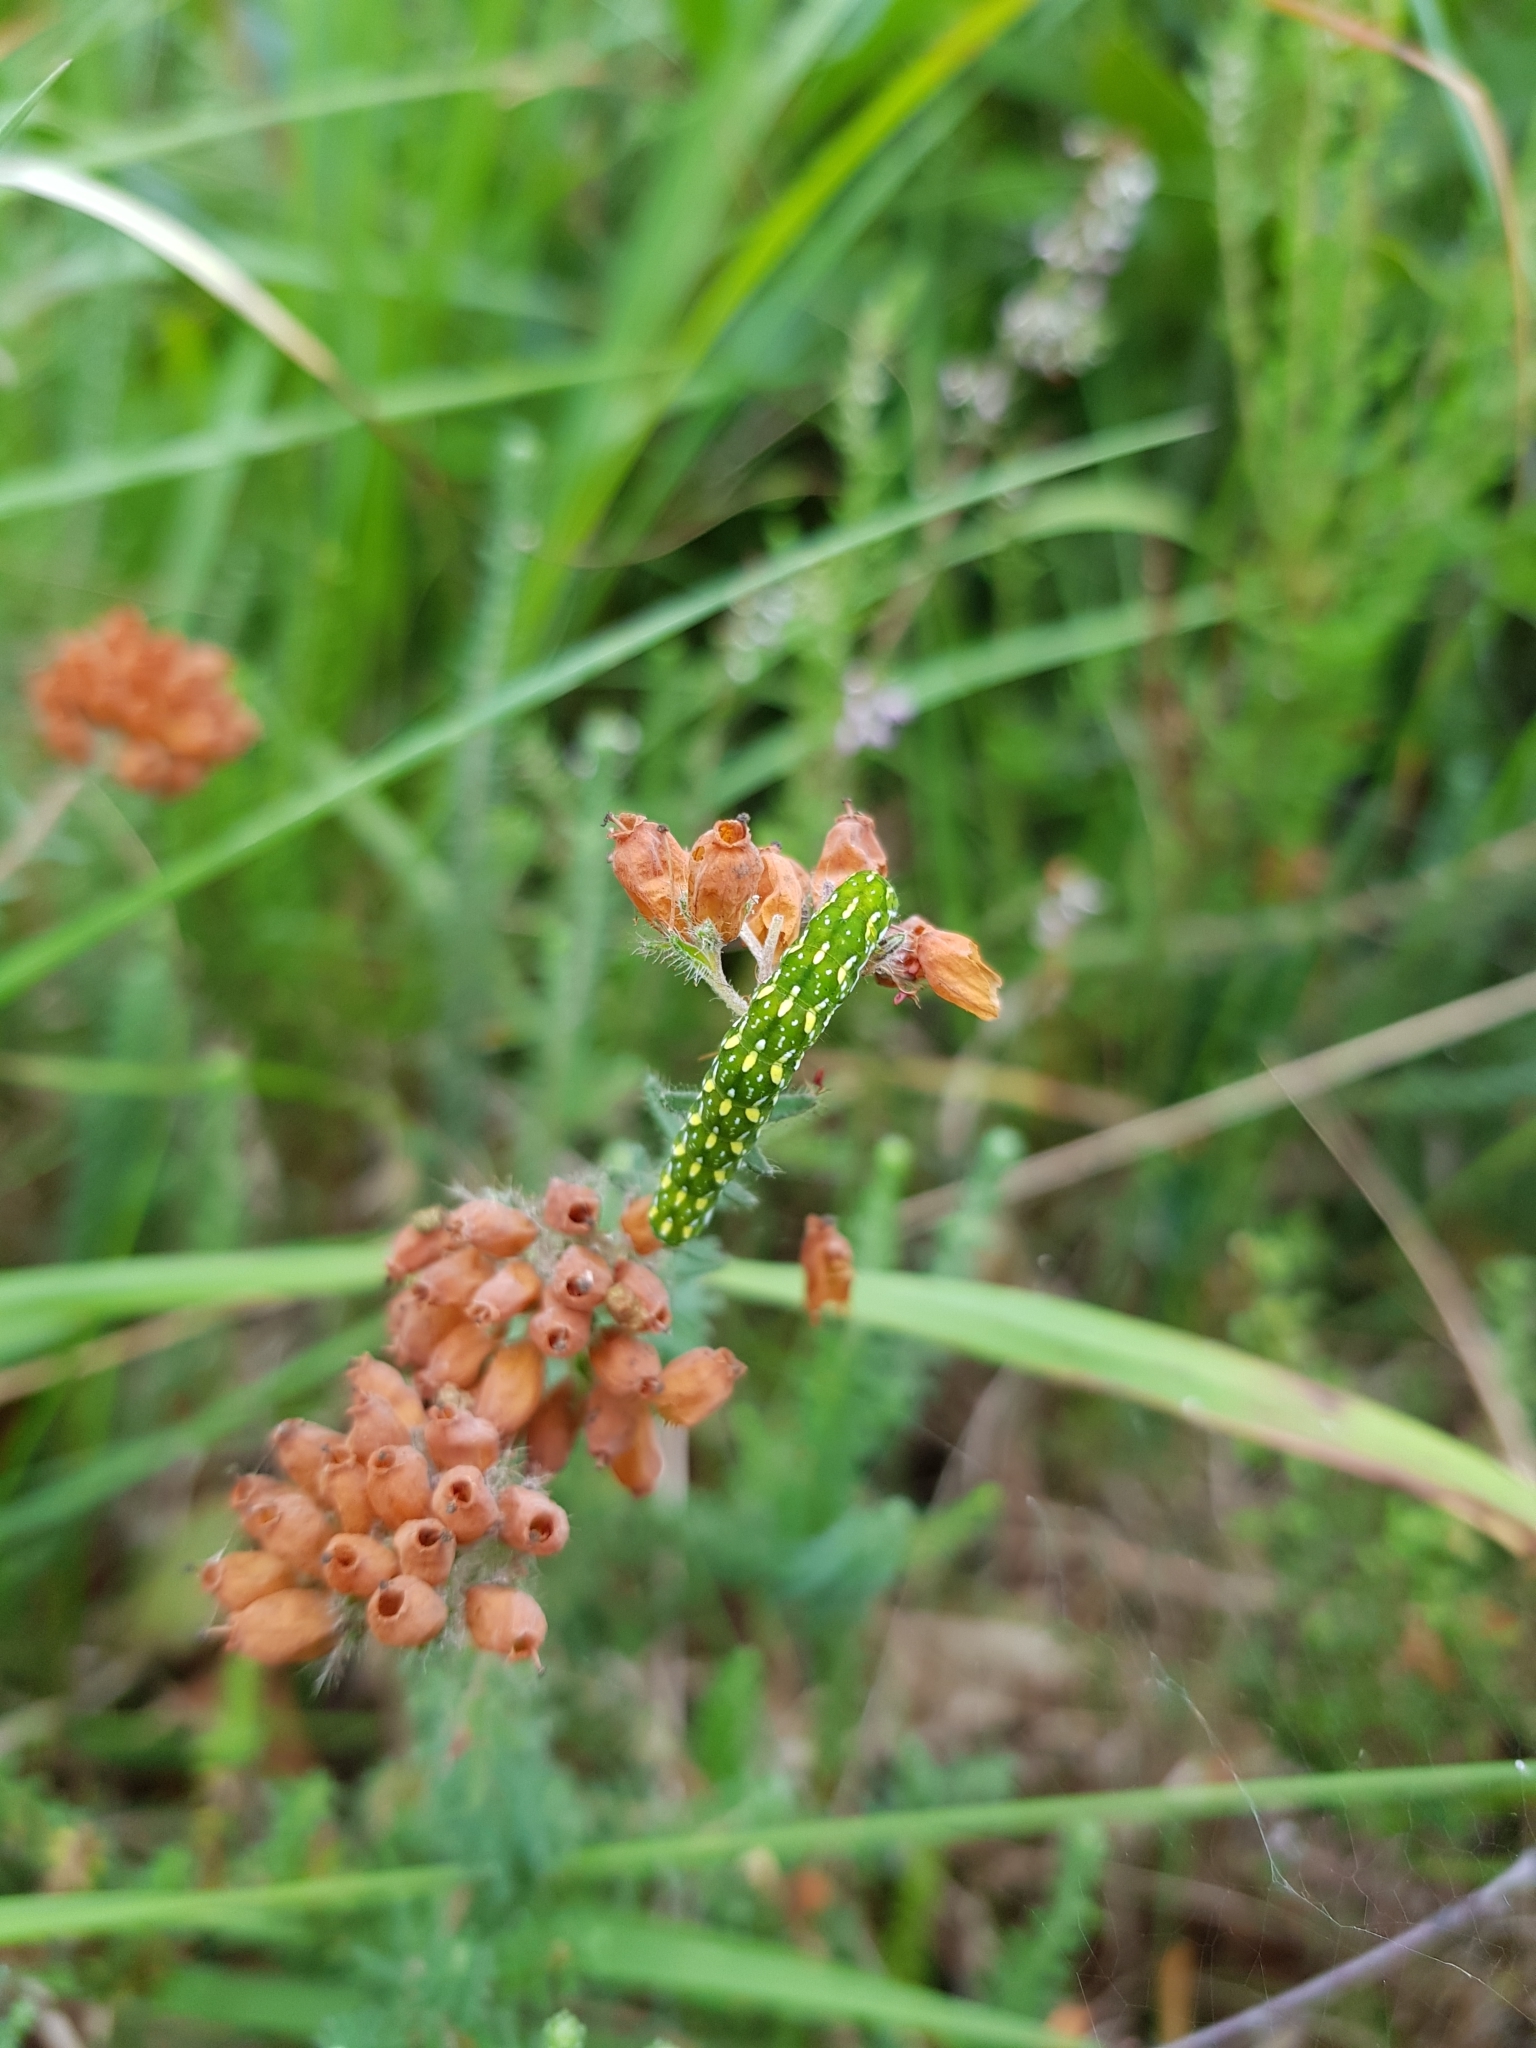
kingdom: Animalia
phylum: Arthropoda
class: Insecta
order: Lepidoptera
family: Noctuidae
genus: Anarta
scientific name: Anarta myrtilli
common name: Beautiful yellow underwing
